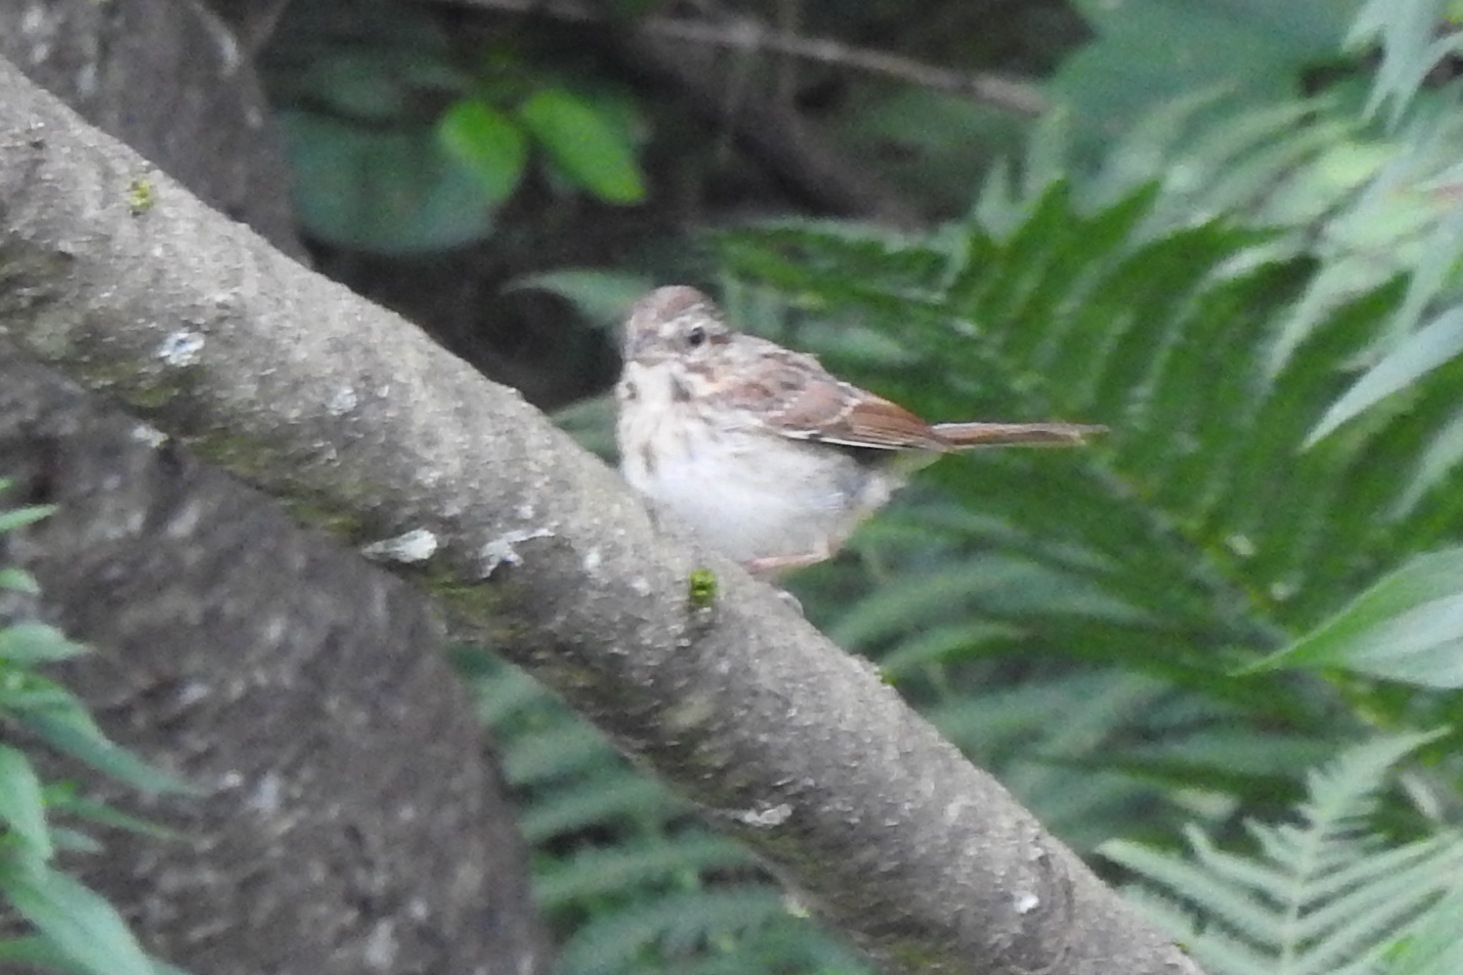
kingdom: Animalia
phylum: Chordata
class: Aves
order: Passeriformes
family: Passerellidae
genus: Melospiza
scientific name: Melospiza melodia
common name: Song sparrow
